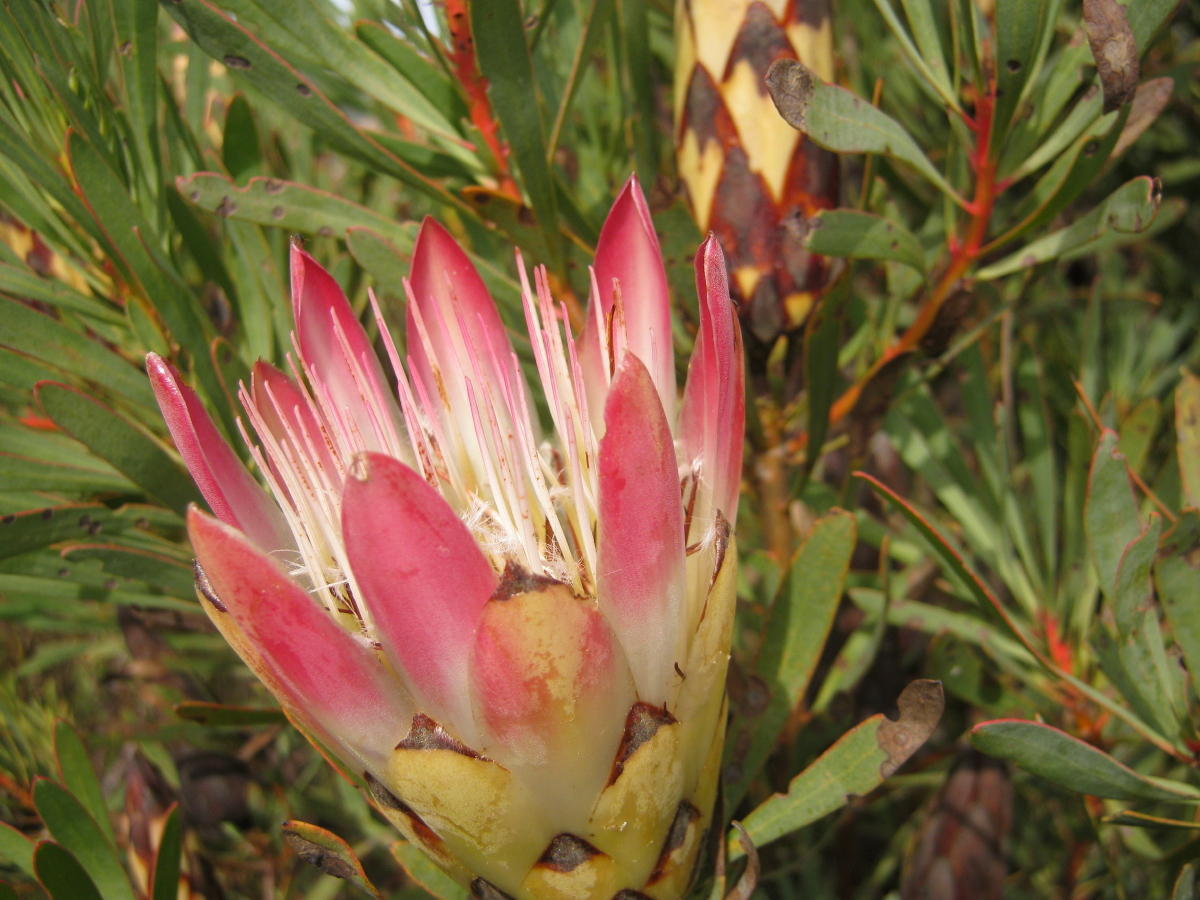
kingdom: Plantae
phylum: Tracheophyta
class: Magnoliopsida
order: Proteales
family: Proteaceae
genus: Protea
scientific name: Protea repens
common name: Sugarbush
